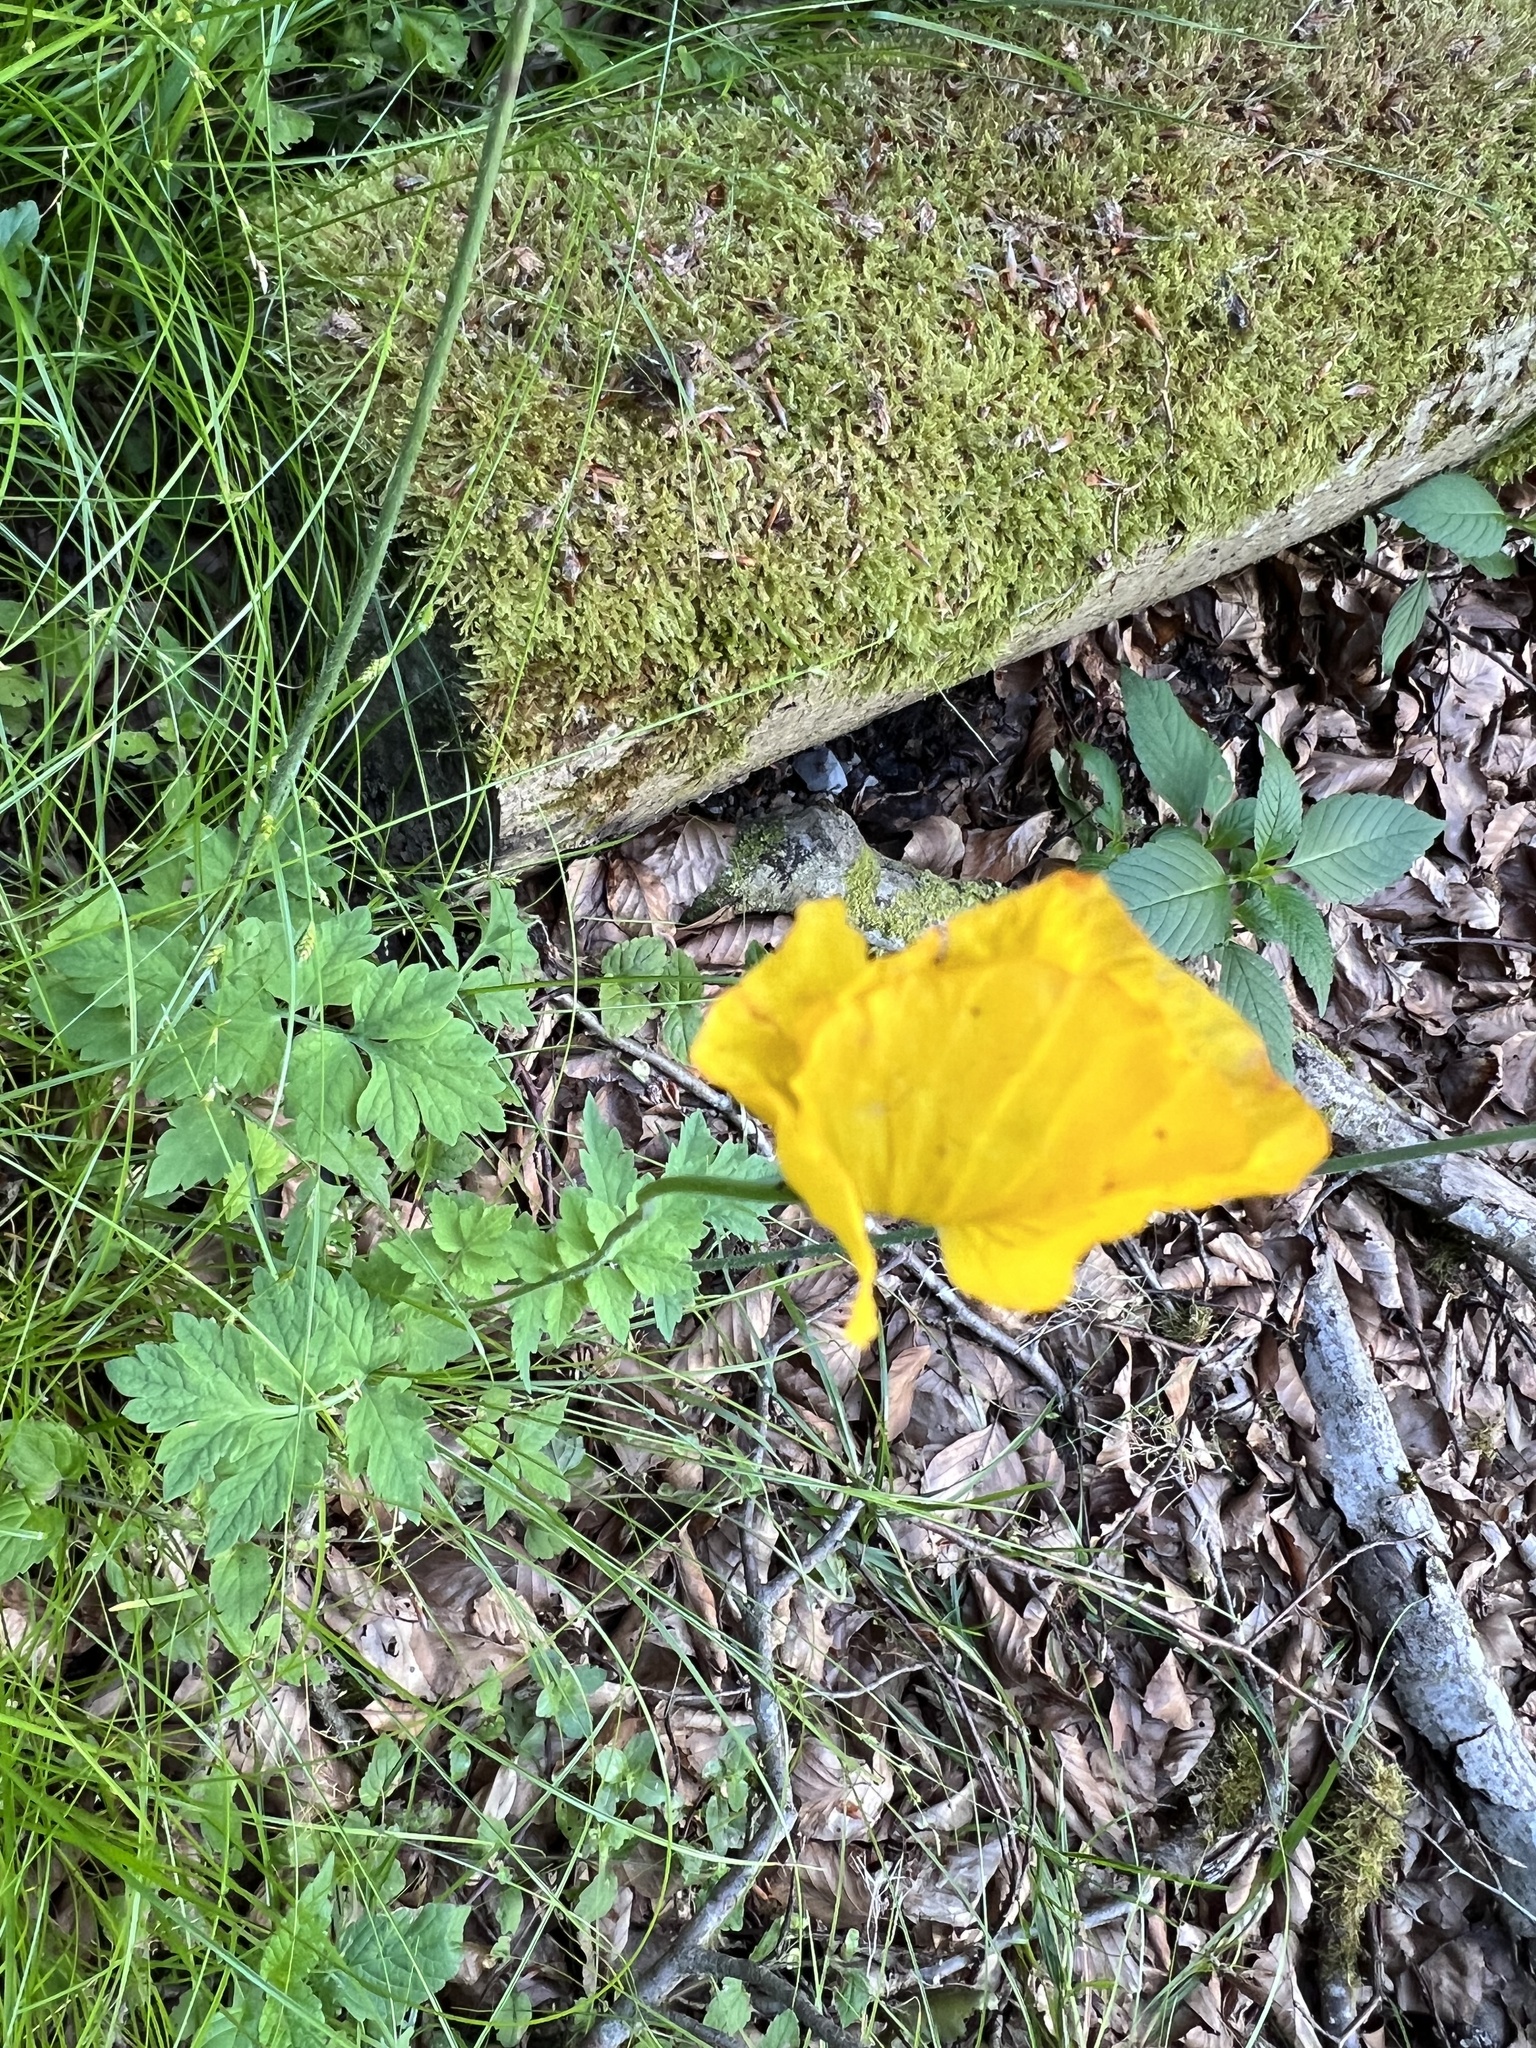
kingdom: Plantae
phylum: Tracheophyta
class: Magnoliopsida
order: Ranunculales
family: Papaveraceae
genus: Papaver
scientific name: Papaver cambricum
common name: Poppy
